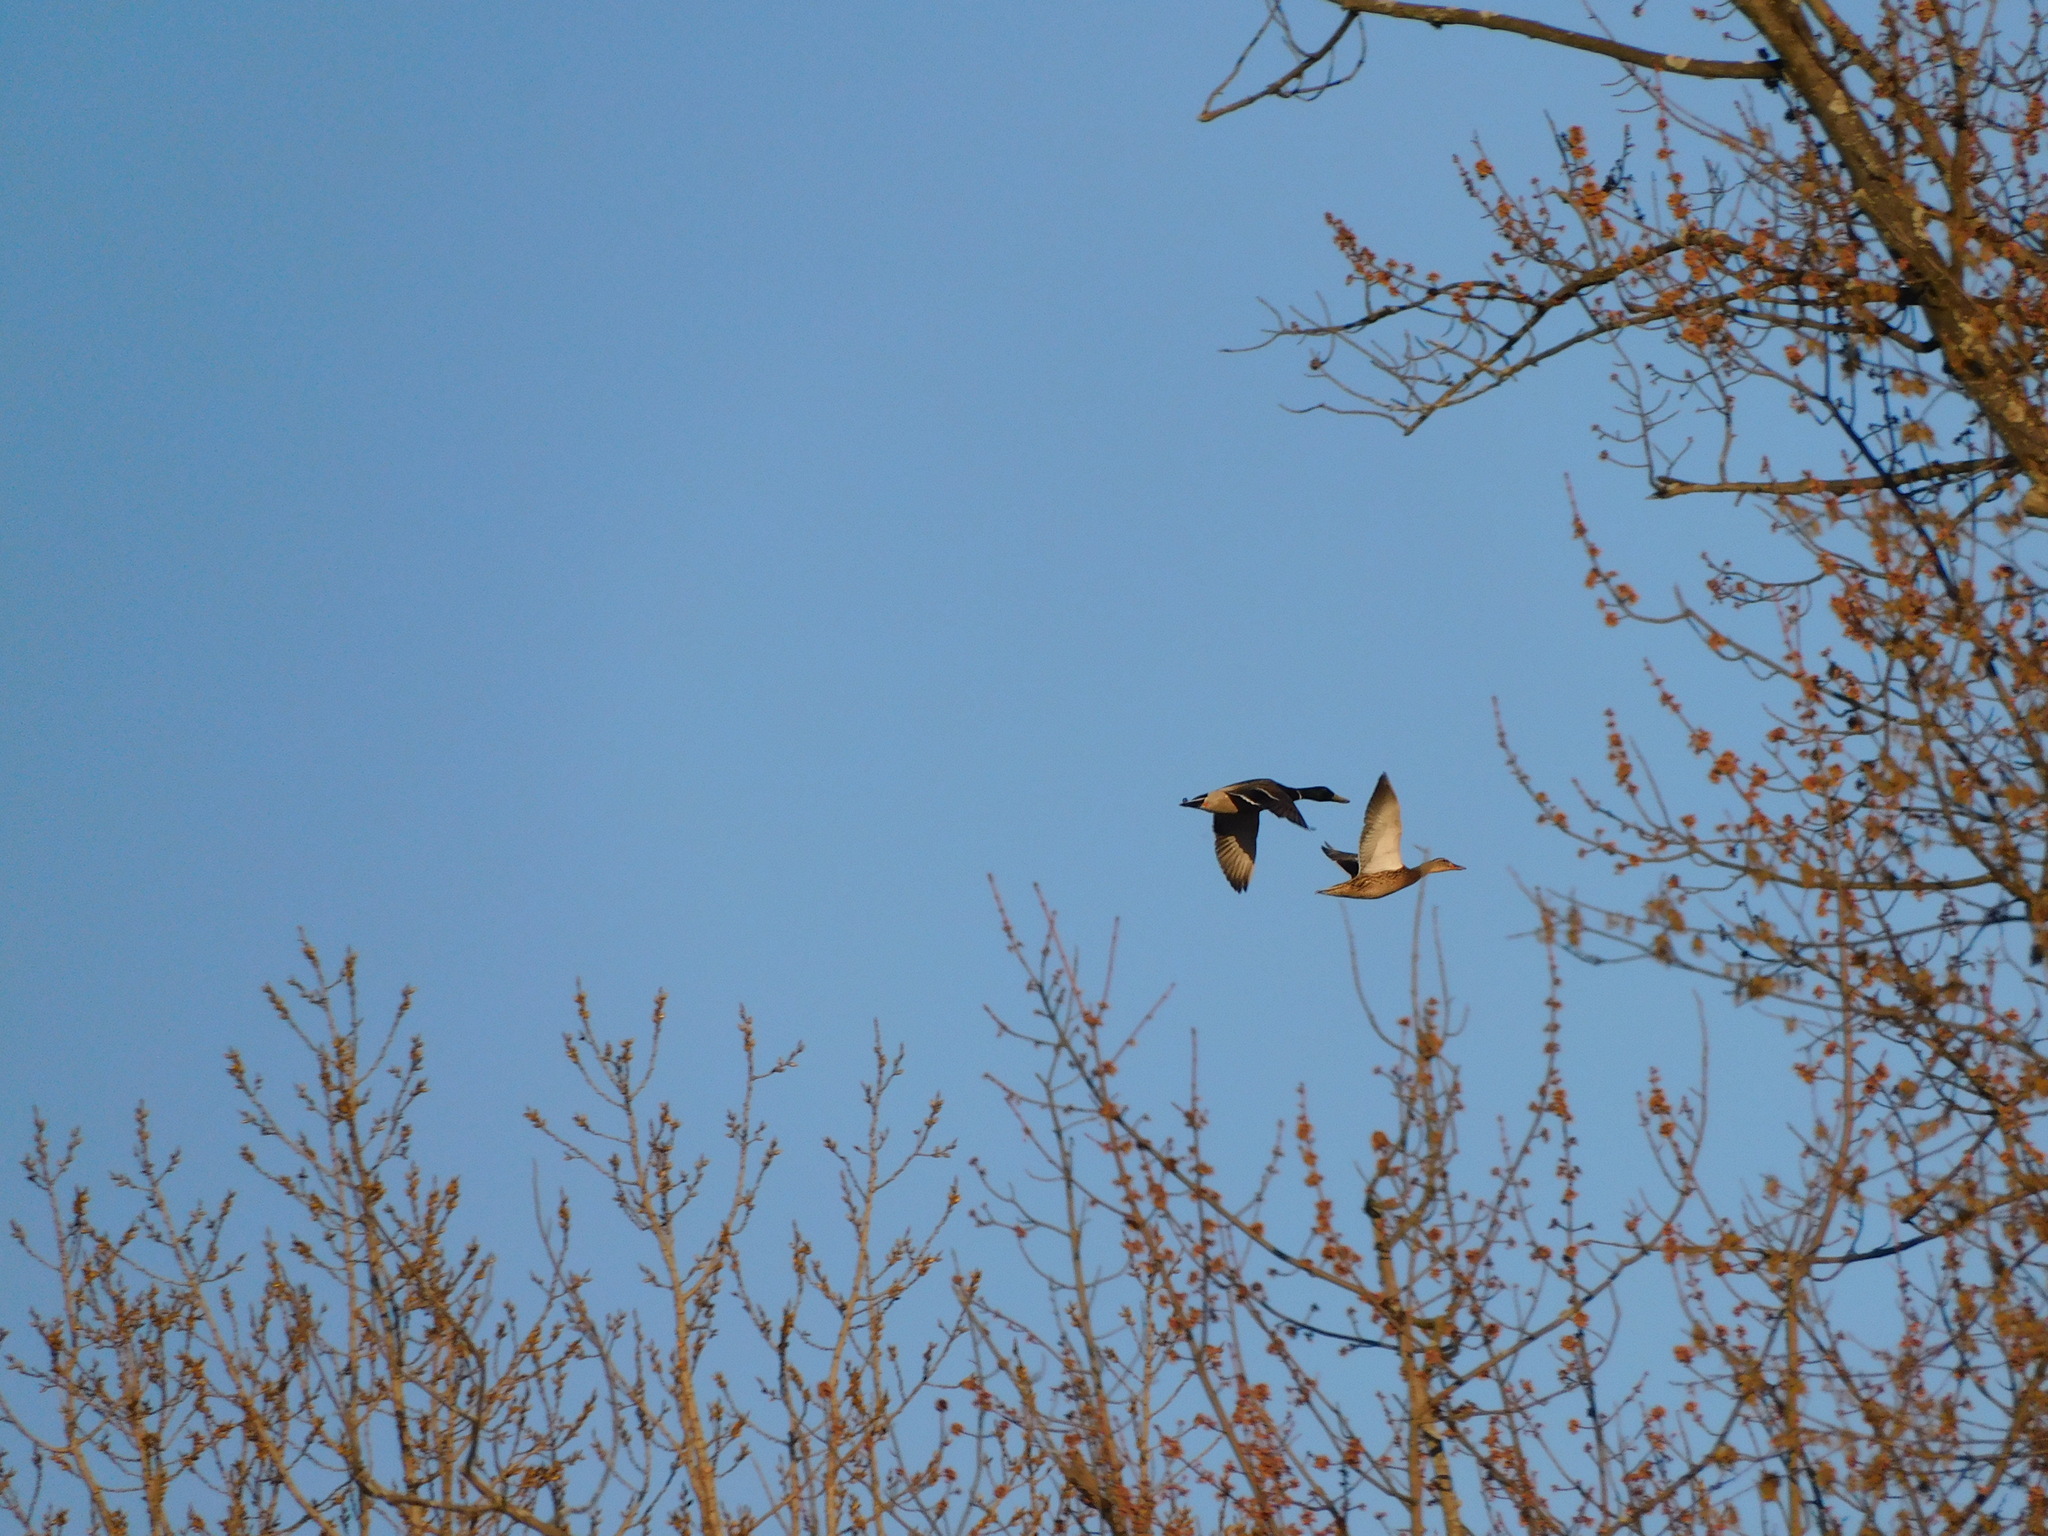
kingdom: Animalia
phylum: Chordata
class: Aves
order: Anseriformes
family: Anatidae
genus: Anas
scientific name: Anas platyrhynchos
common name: Mallard
